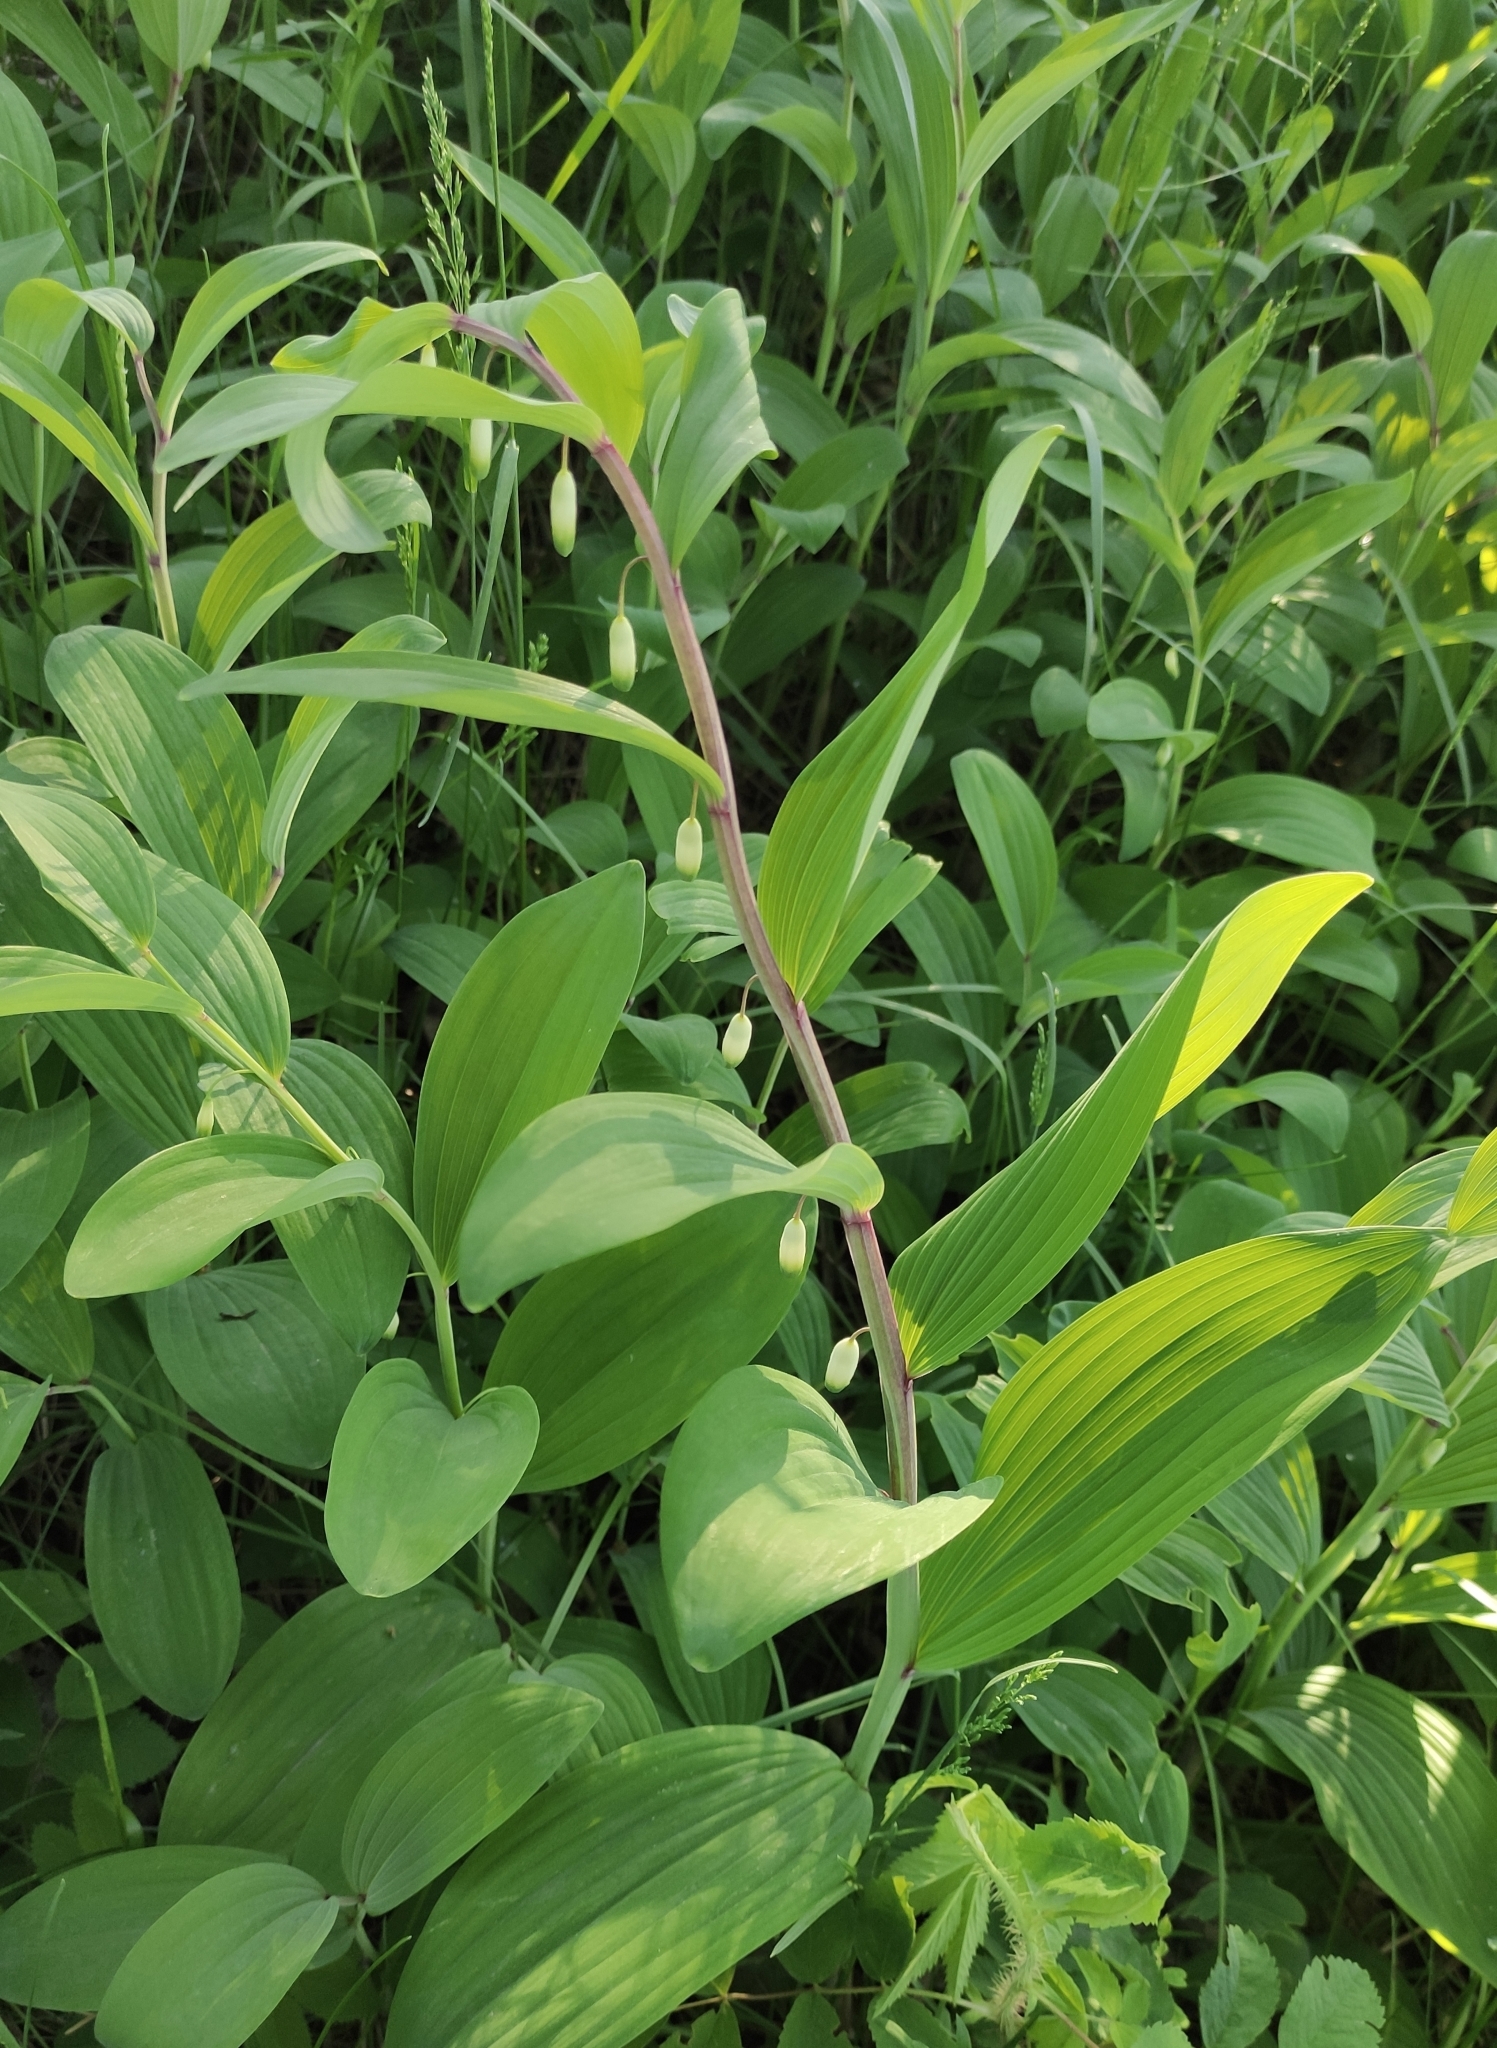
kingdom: Plantae
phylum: Tracheophyta
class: Liliopsida
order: Asparagales
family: Asparagaceae
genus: Polygonatum
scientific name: Polygonatum odoratum
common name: Angular solomon's-seal
